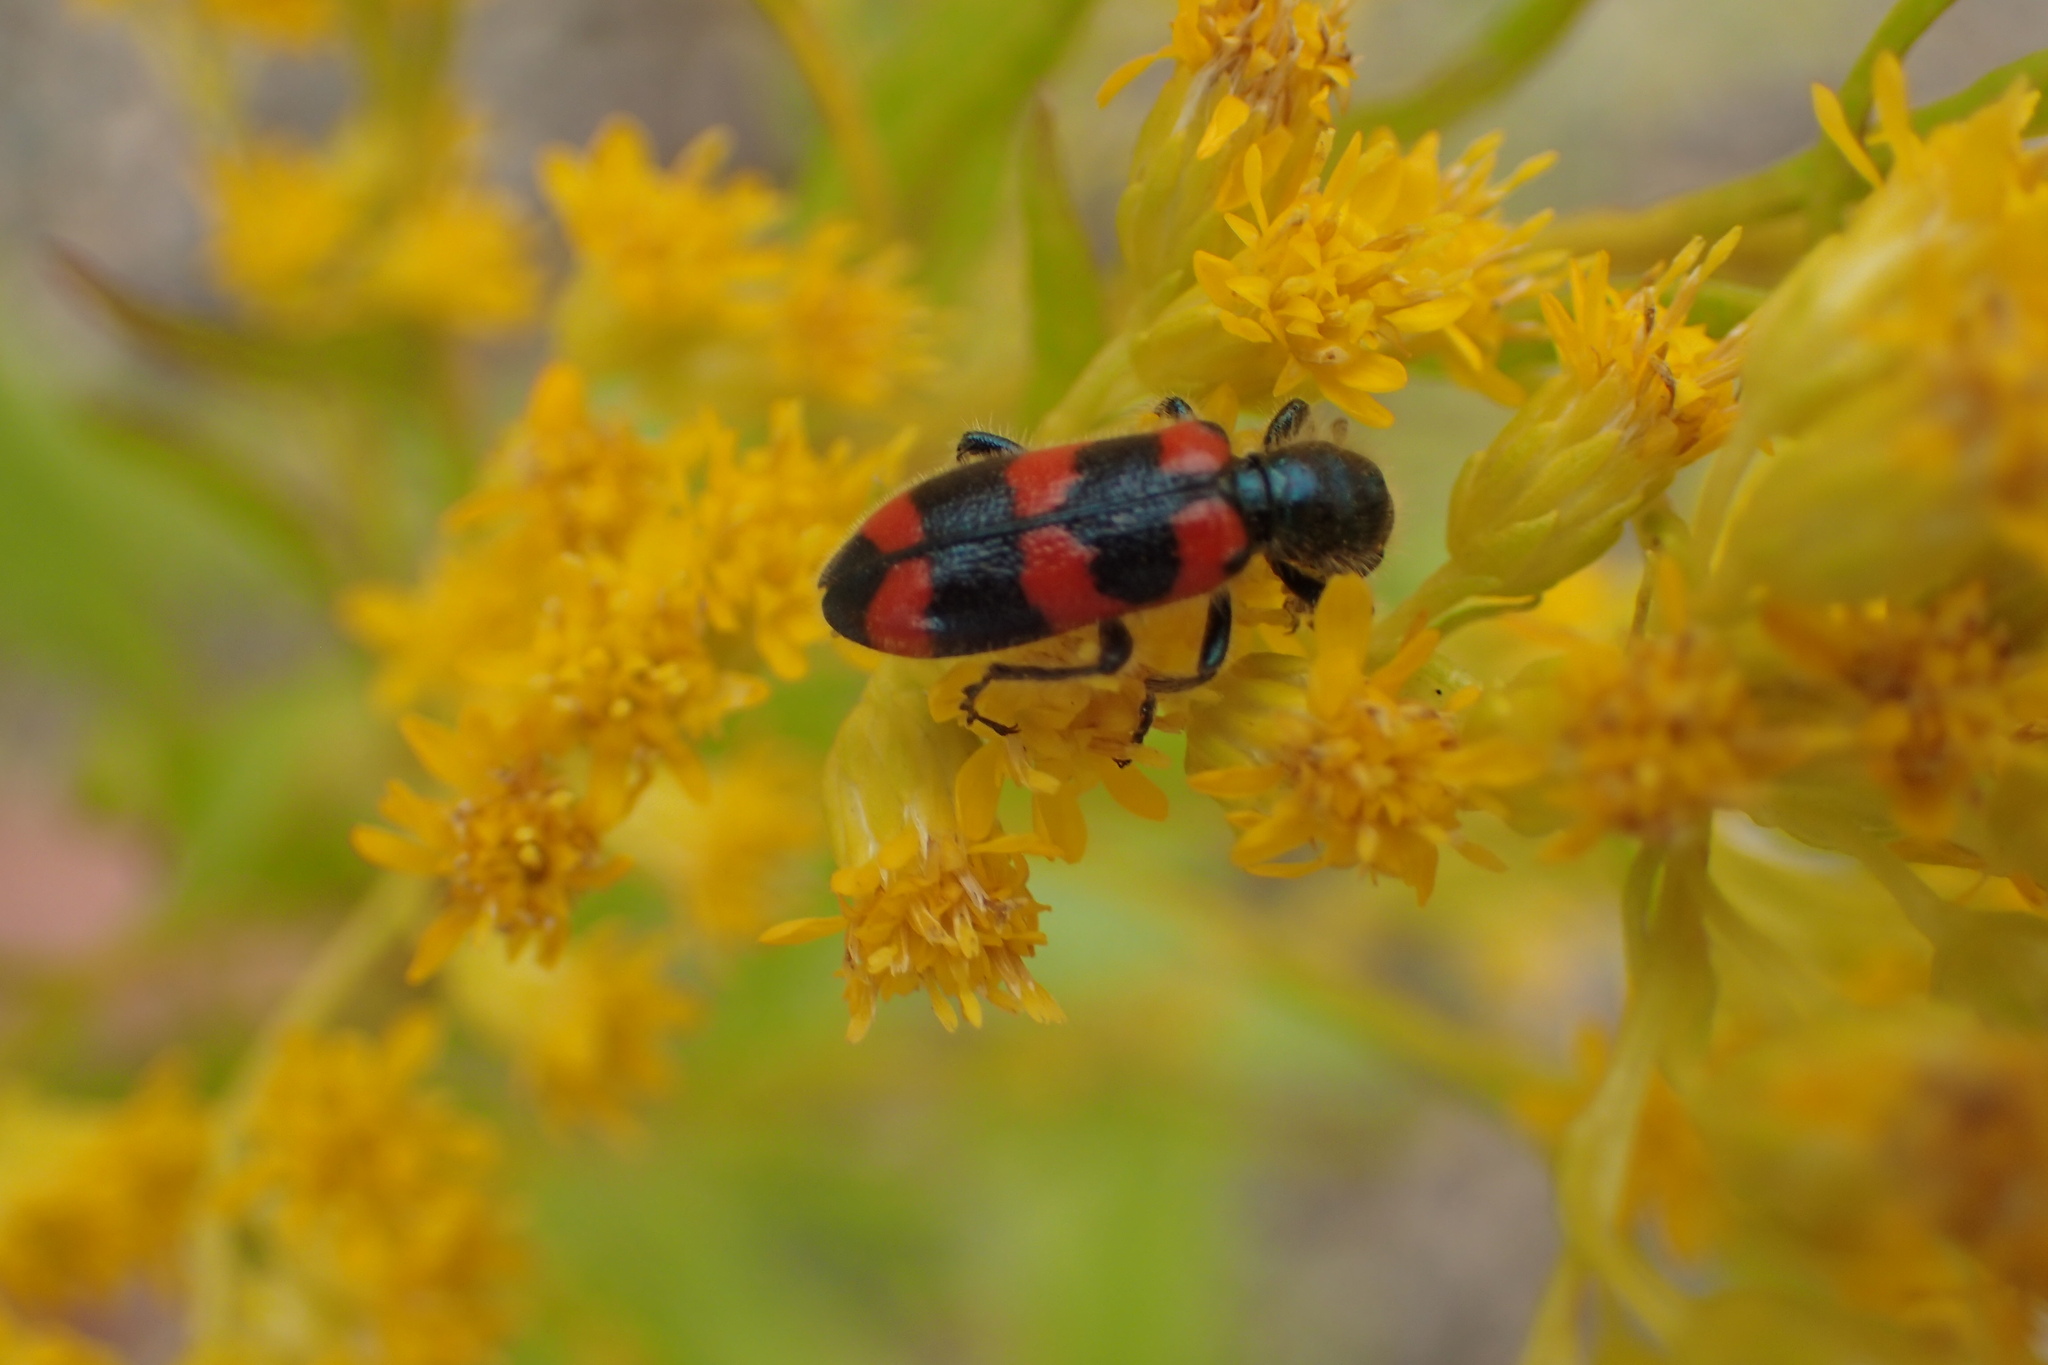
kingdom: Animalia
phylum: Arthropoda
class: Insecta
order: Coleoptera
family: Cleridae
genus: Trichodes
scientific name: Trichodes nutalli
